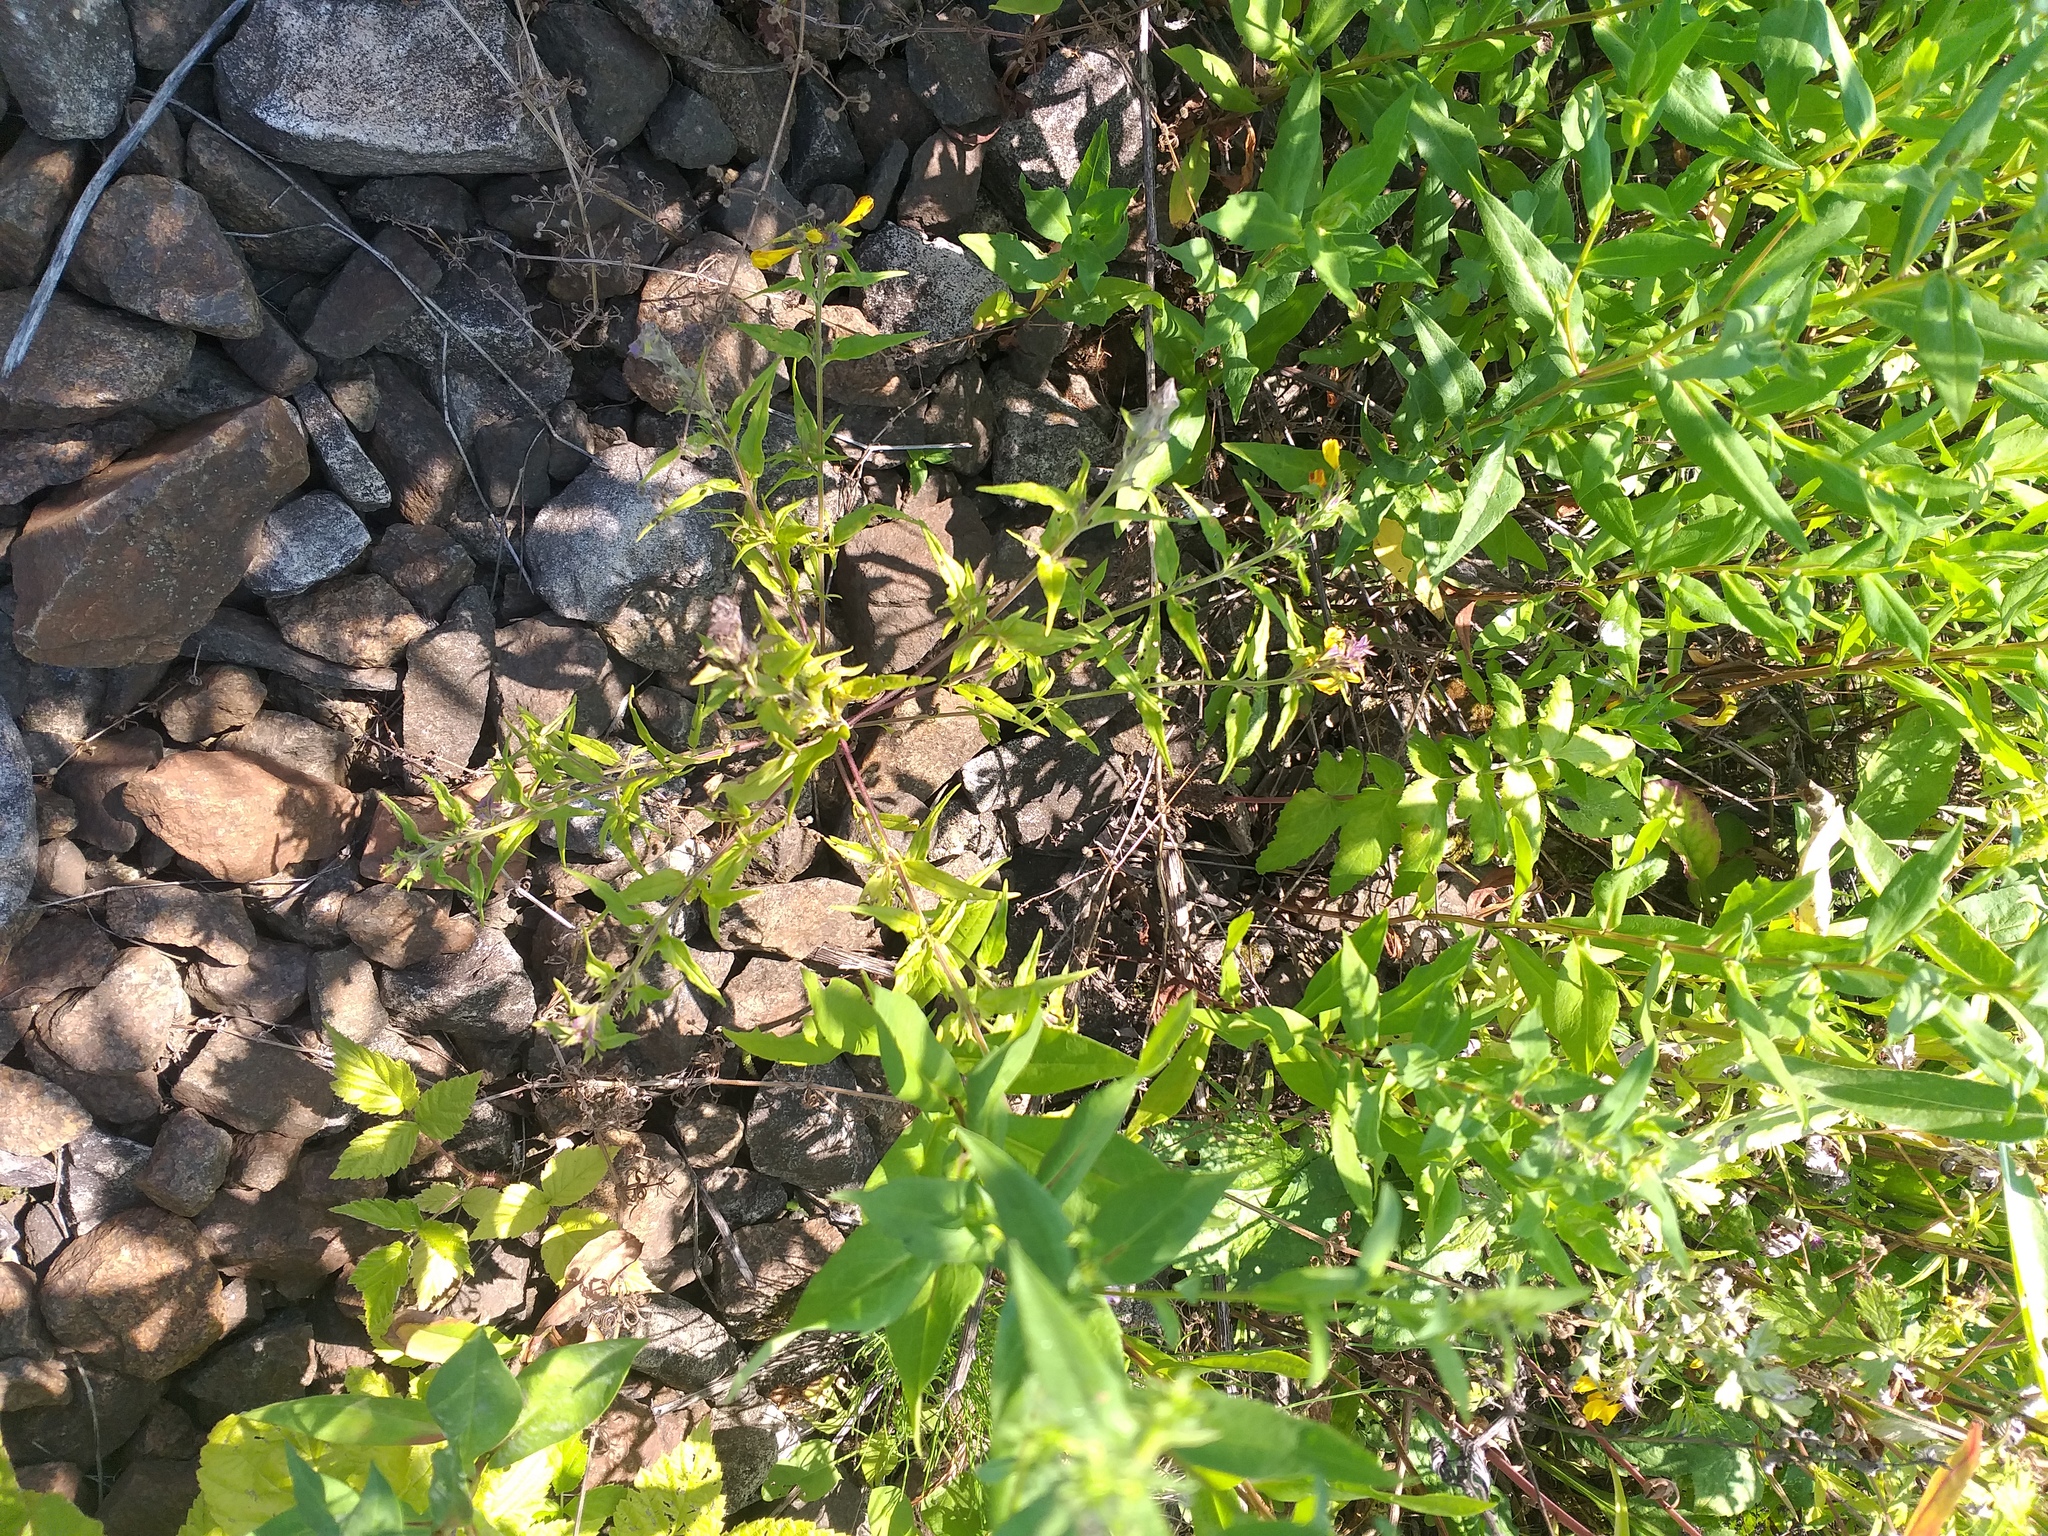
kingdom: Plantae
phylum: Tracheophyta
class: Magnoliopsida
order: Lamiales
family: Orobanchaceae
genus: Melampyrum
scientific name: Melampyrum nemorosum
